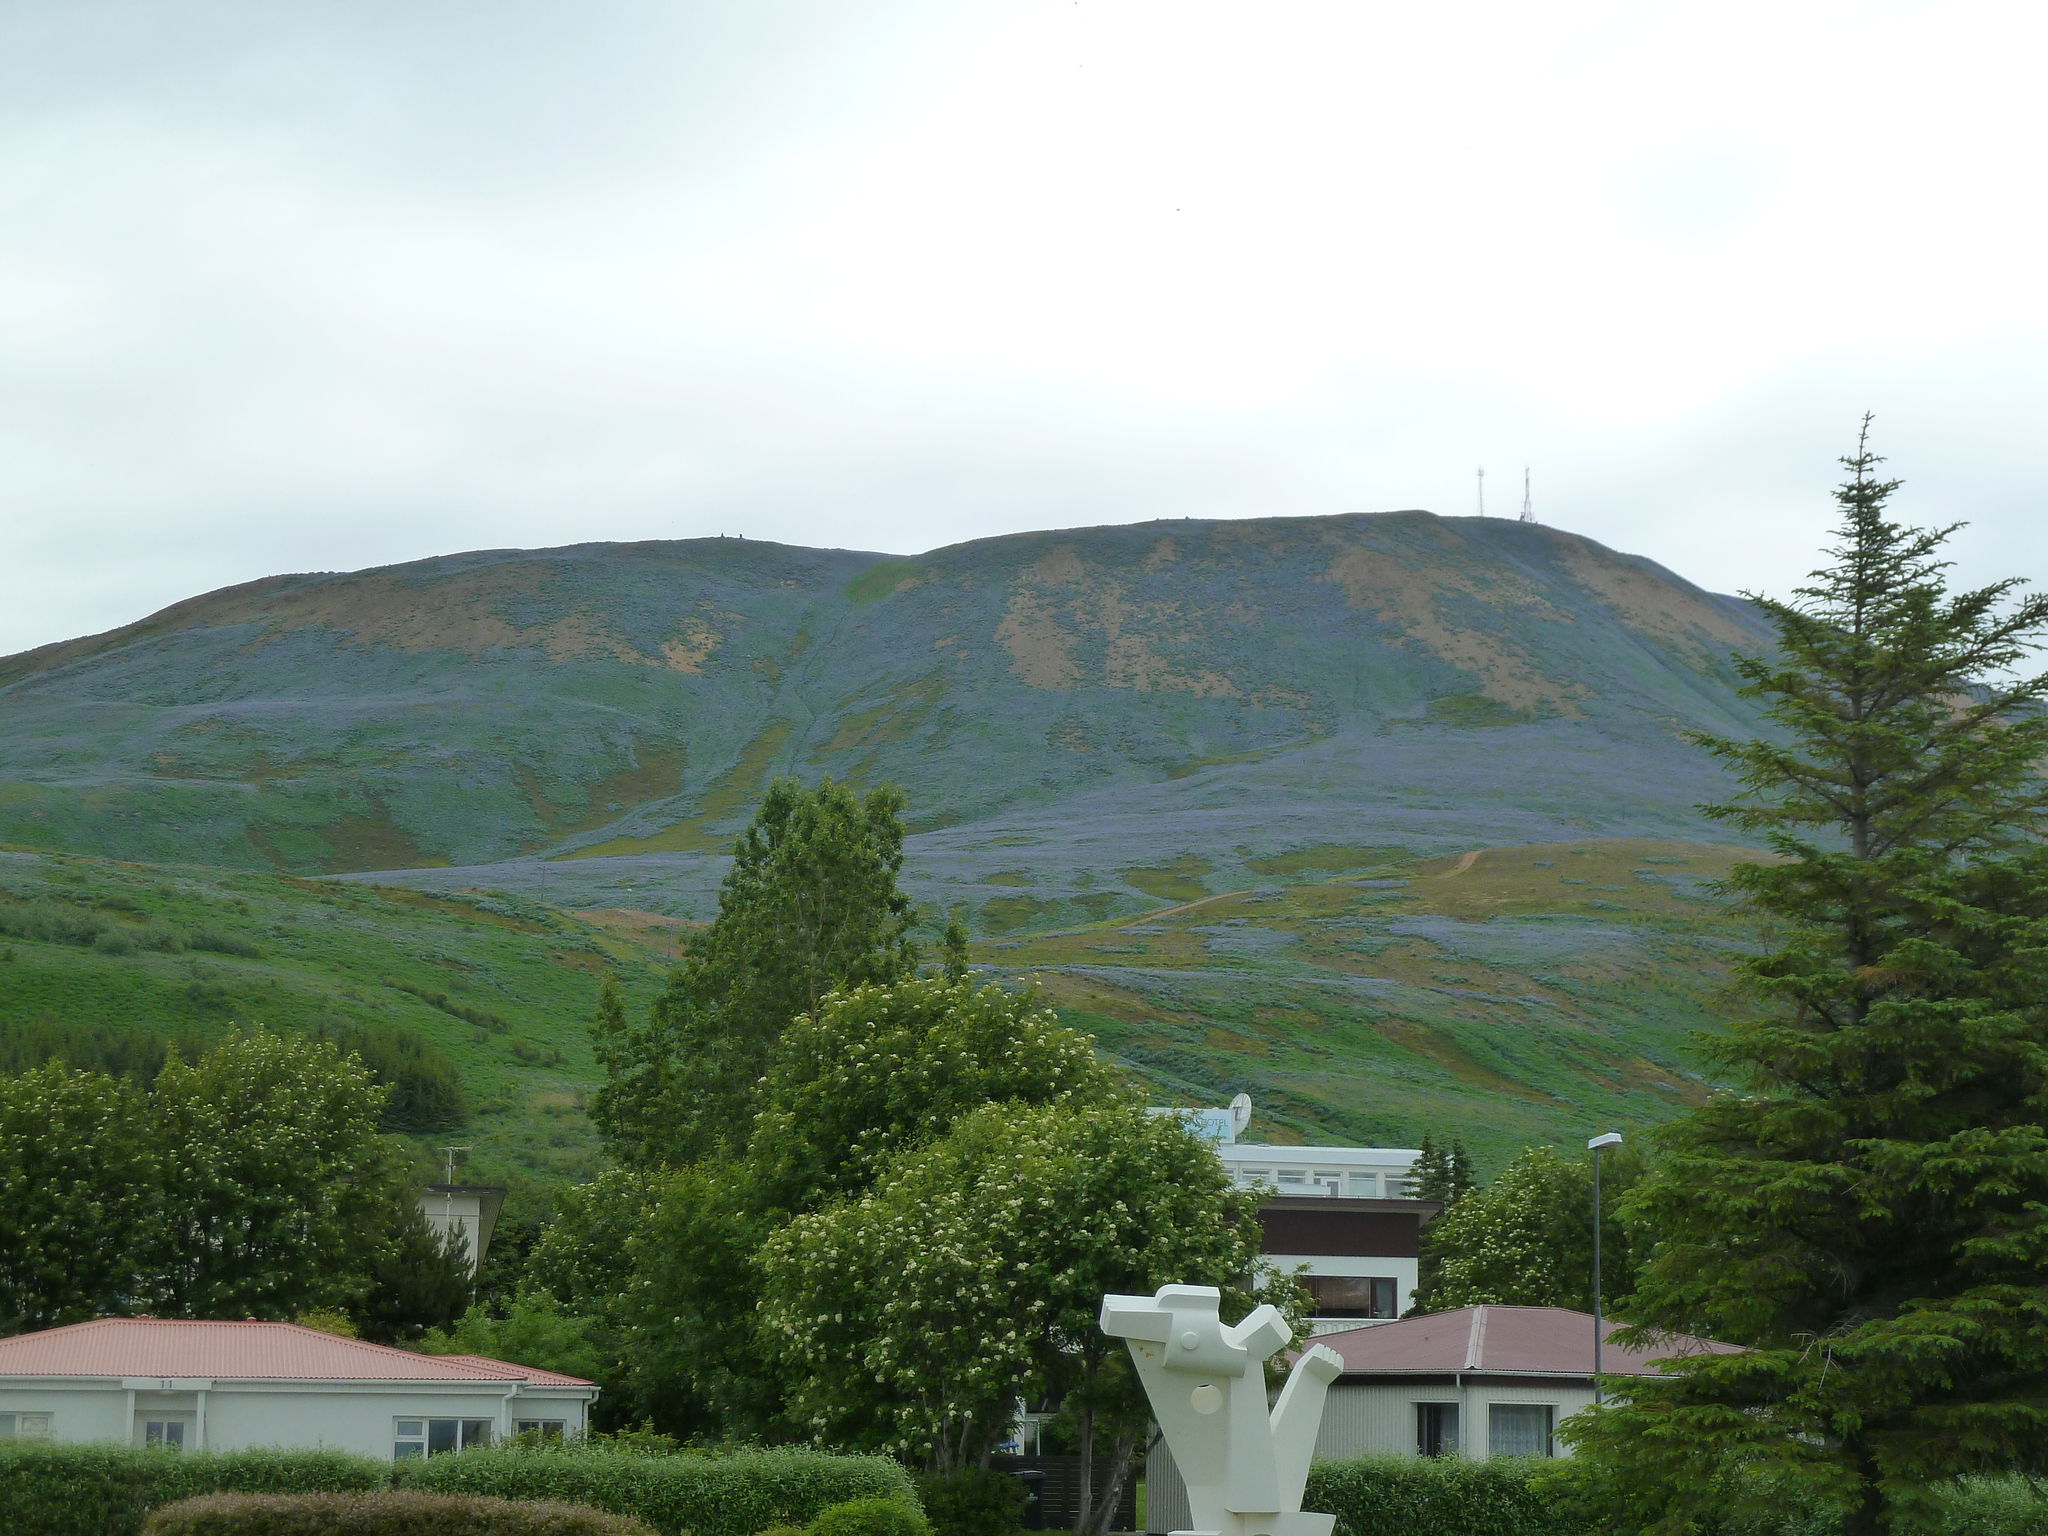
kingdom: Plantae
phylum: Tracheophyta
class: Magnoliopsida
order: Fabales
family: Fabaceae
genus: Lupinus
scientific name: Lupinus nootkatensis
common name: Nootka lupine
